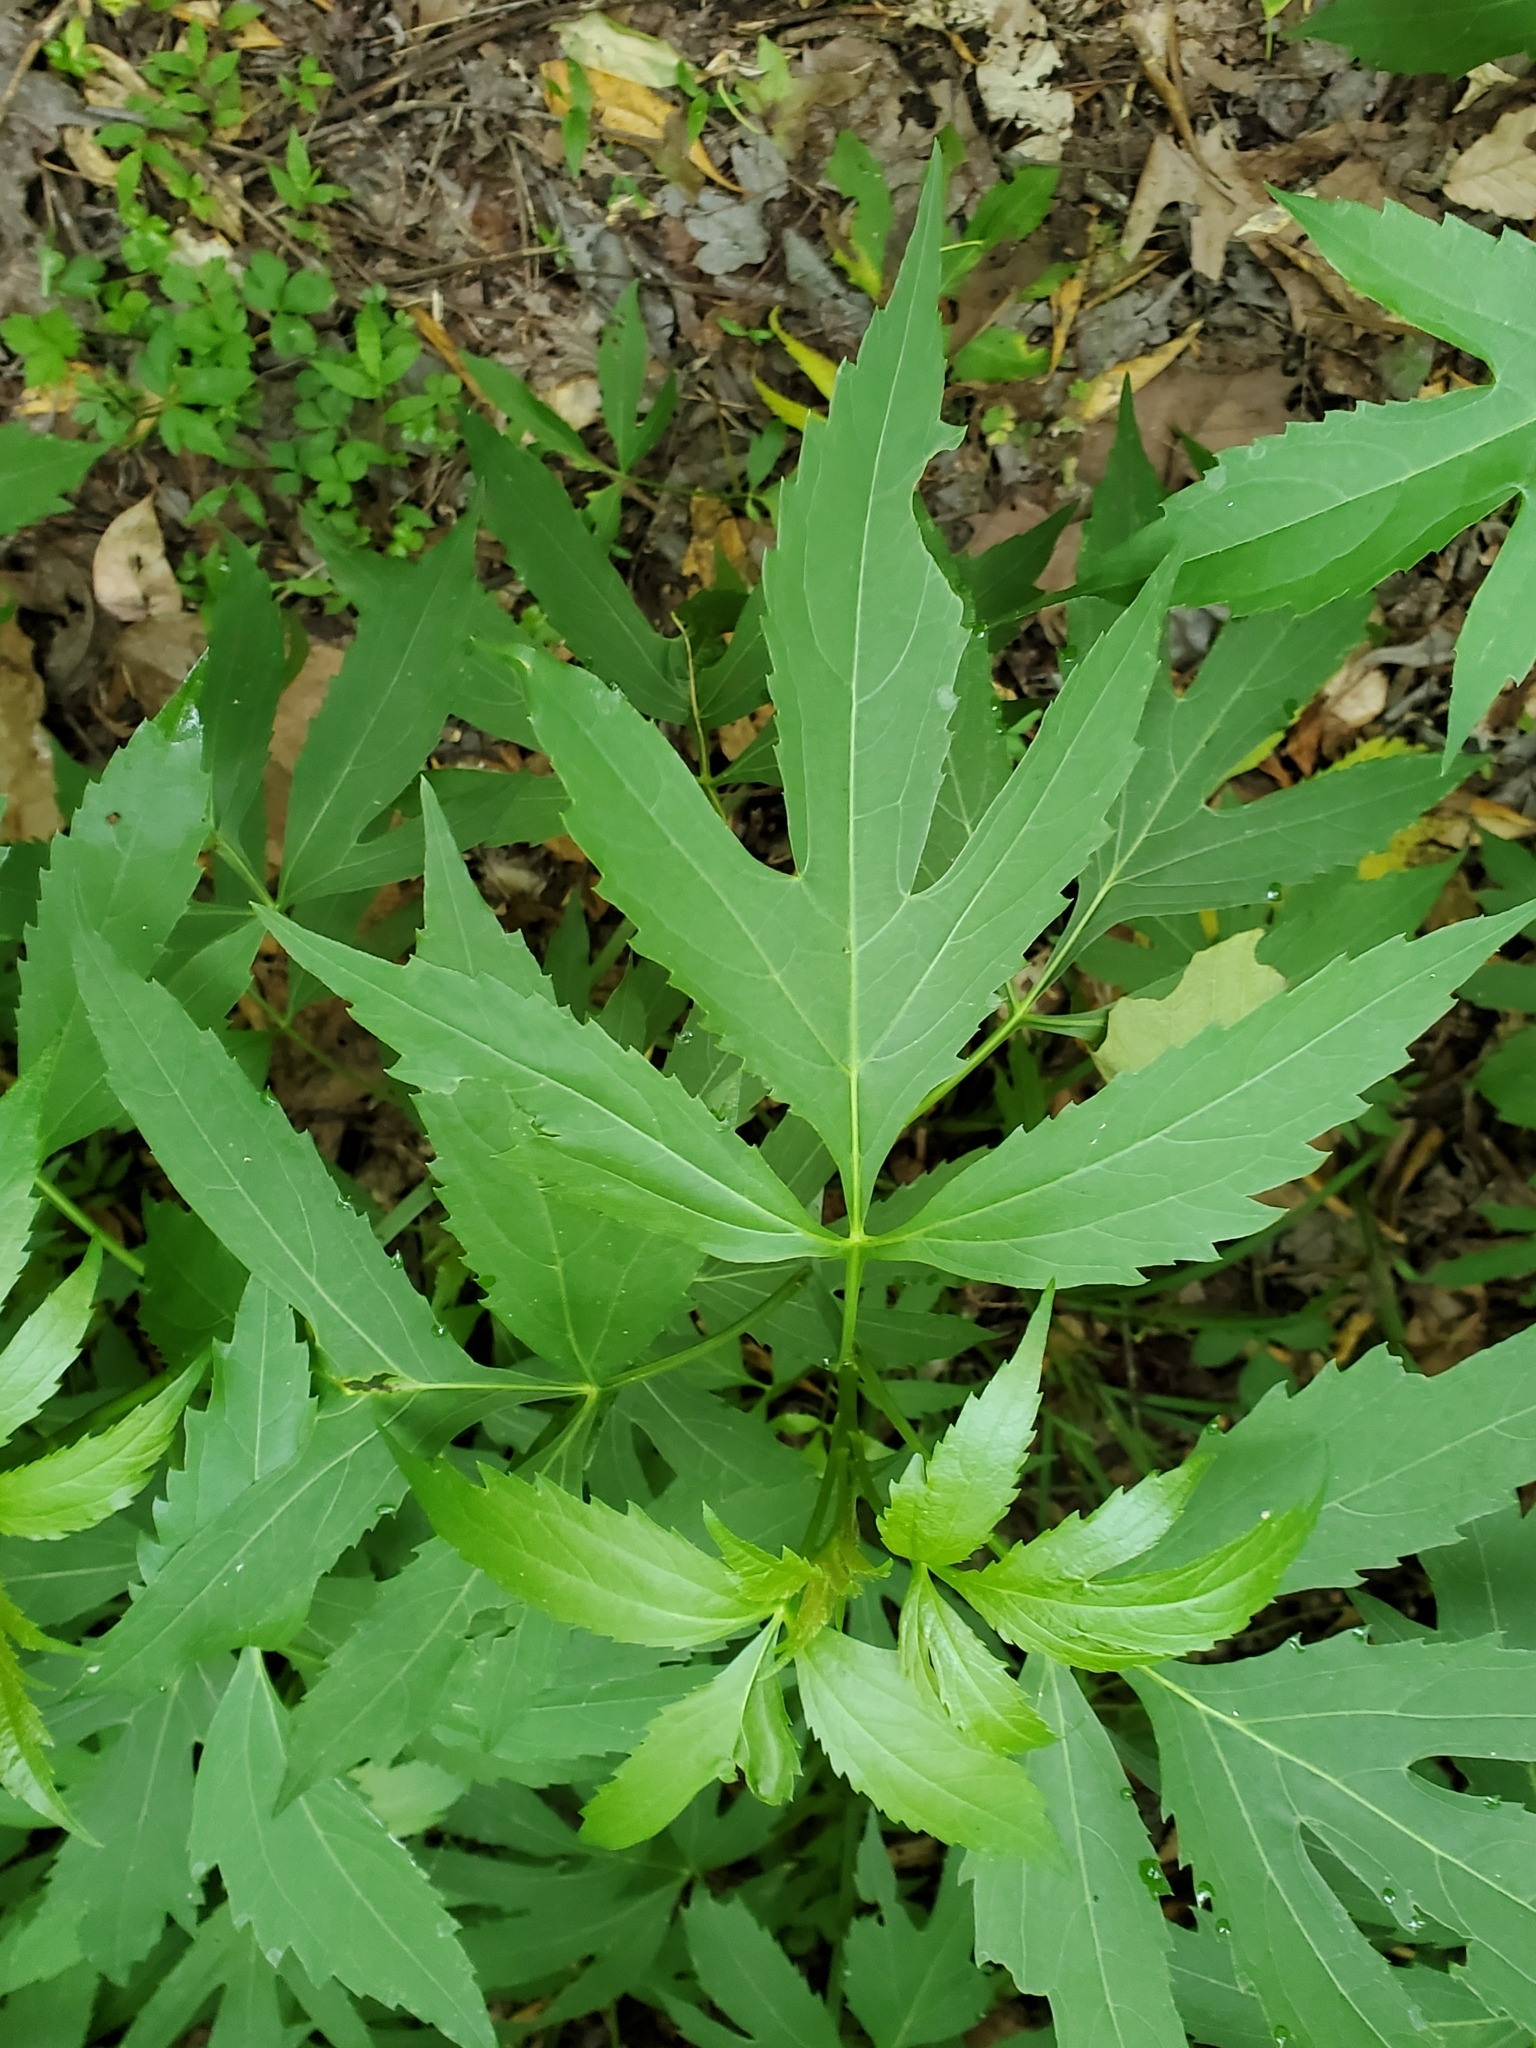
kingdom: Plantae
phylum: Tracheophyta
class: Magnoliopsida
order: Asterales
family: Asteraceae
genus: Rudbeckia
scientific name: Rudbeckia laciniata
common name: Coneflower
